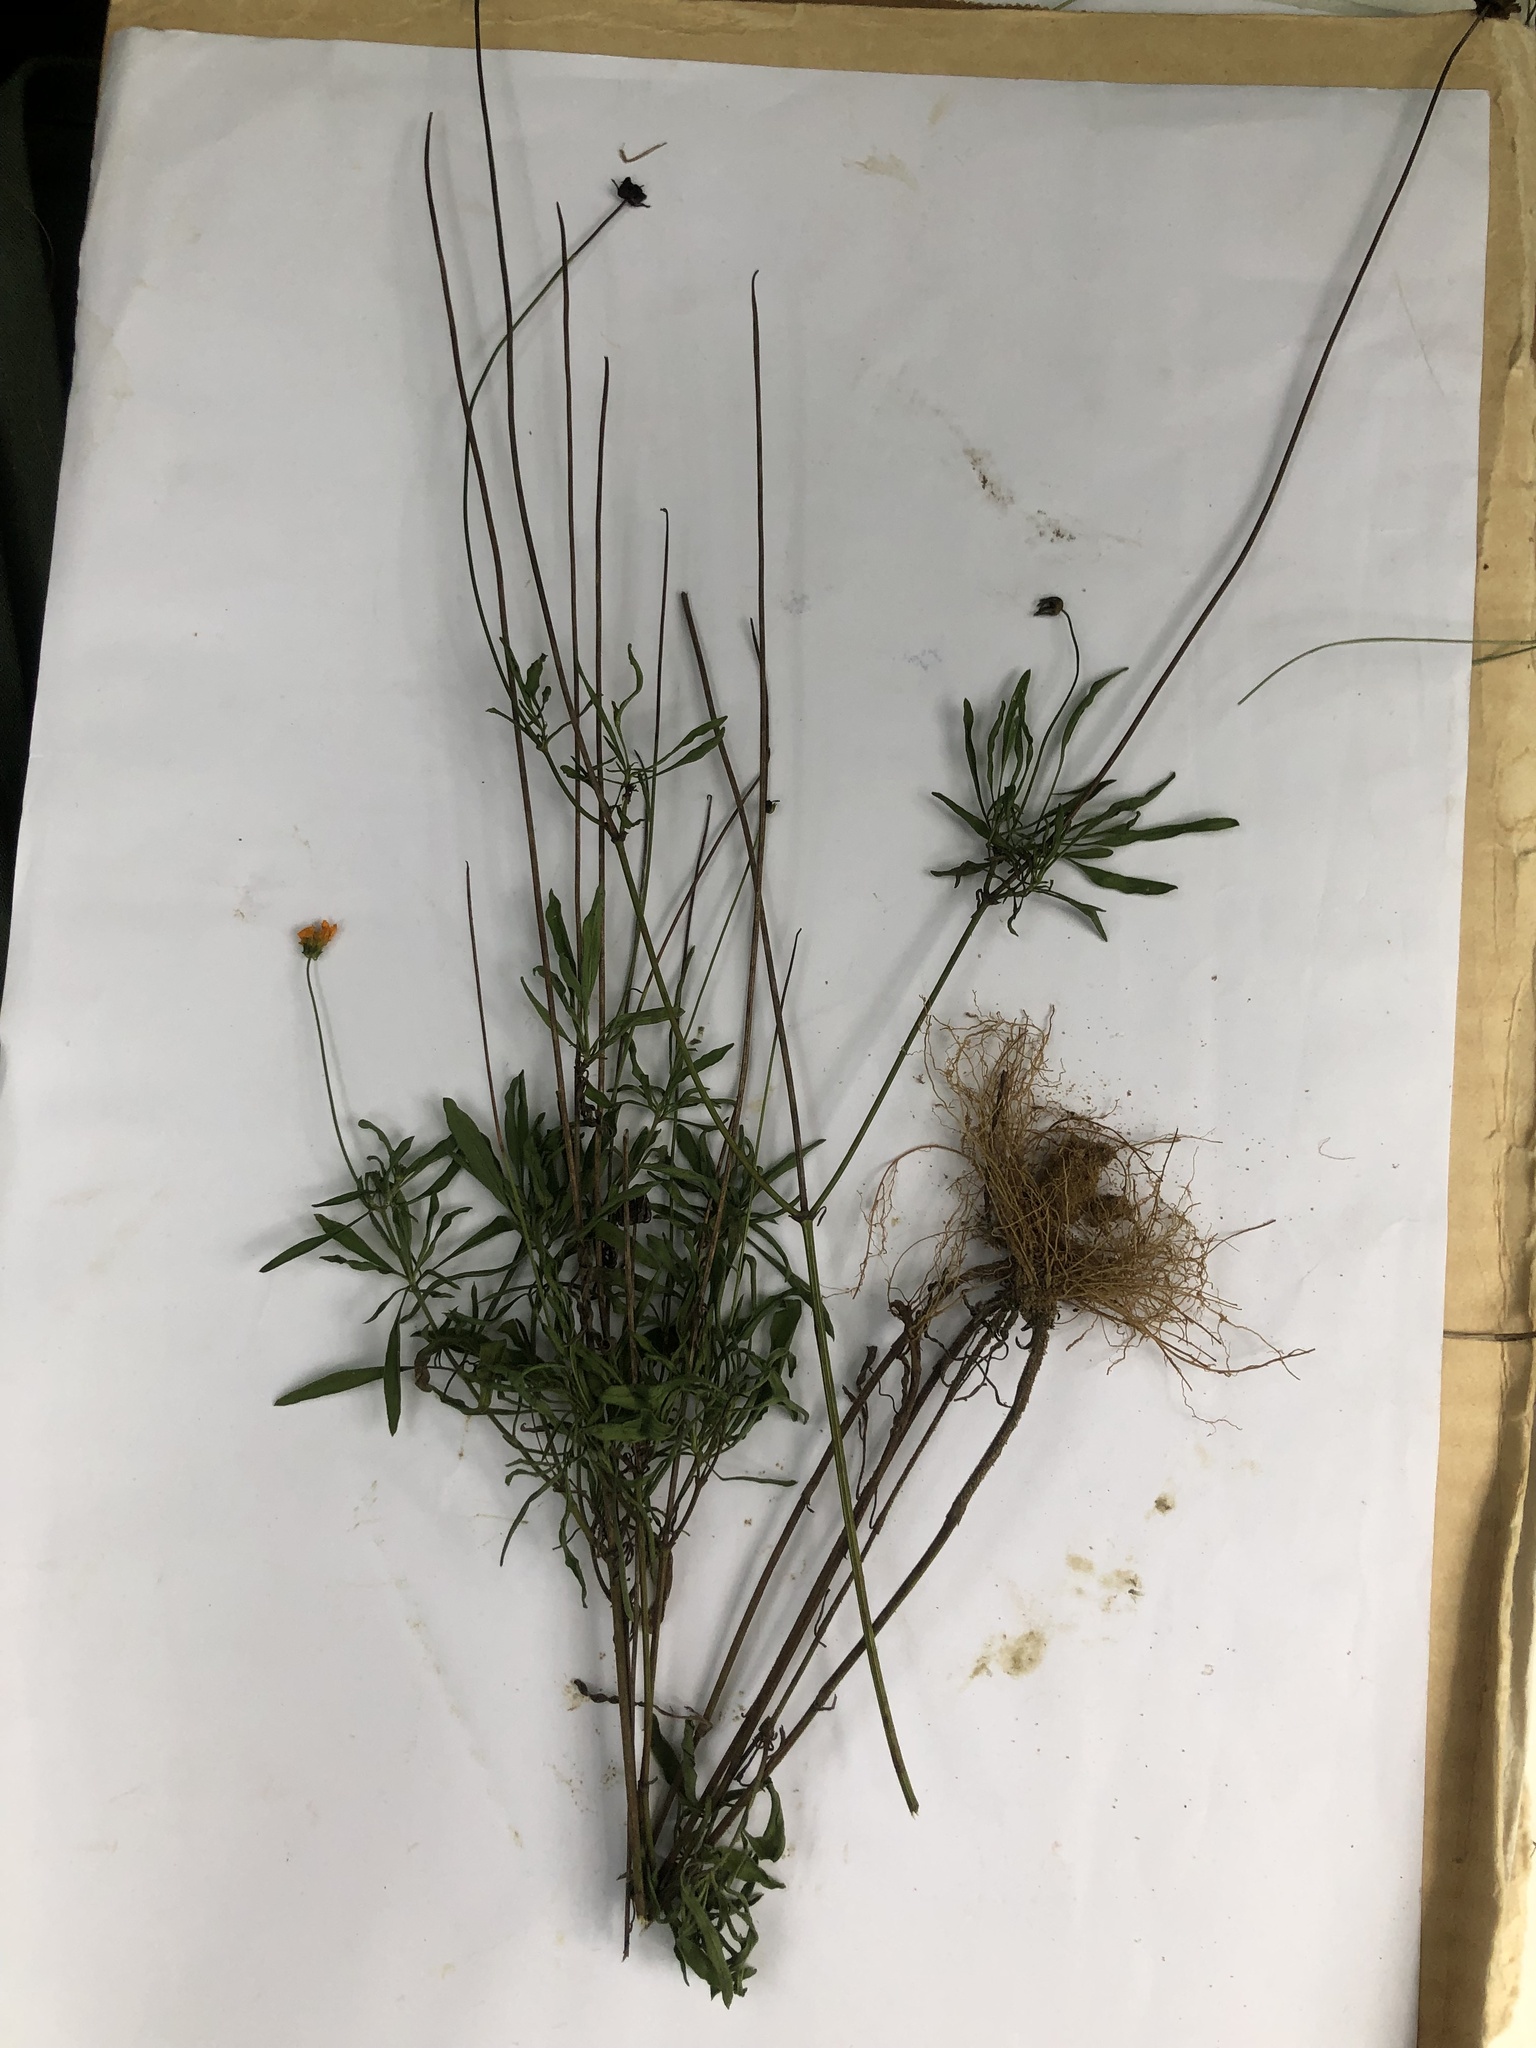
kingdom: Plantae
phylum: Tracheophyta
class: Magnoliopsida
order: Asterales
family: Asteraceae
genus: Coreopsis
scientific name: Coreopsis pubescens
